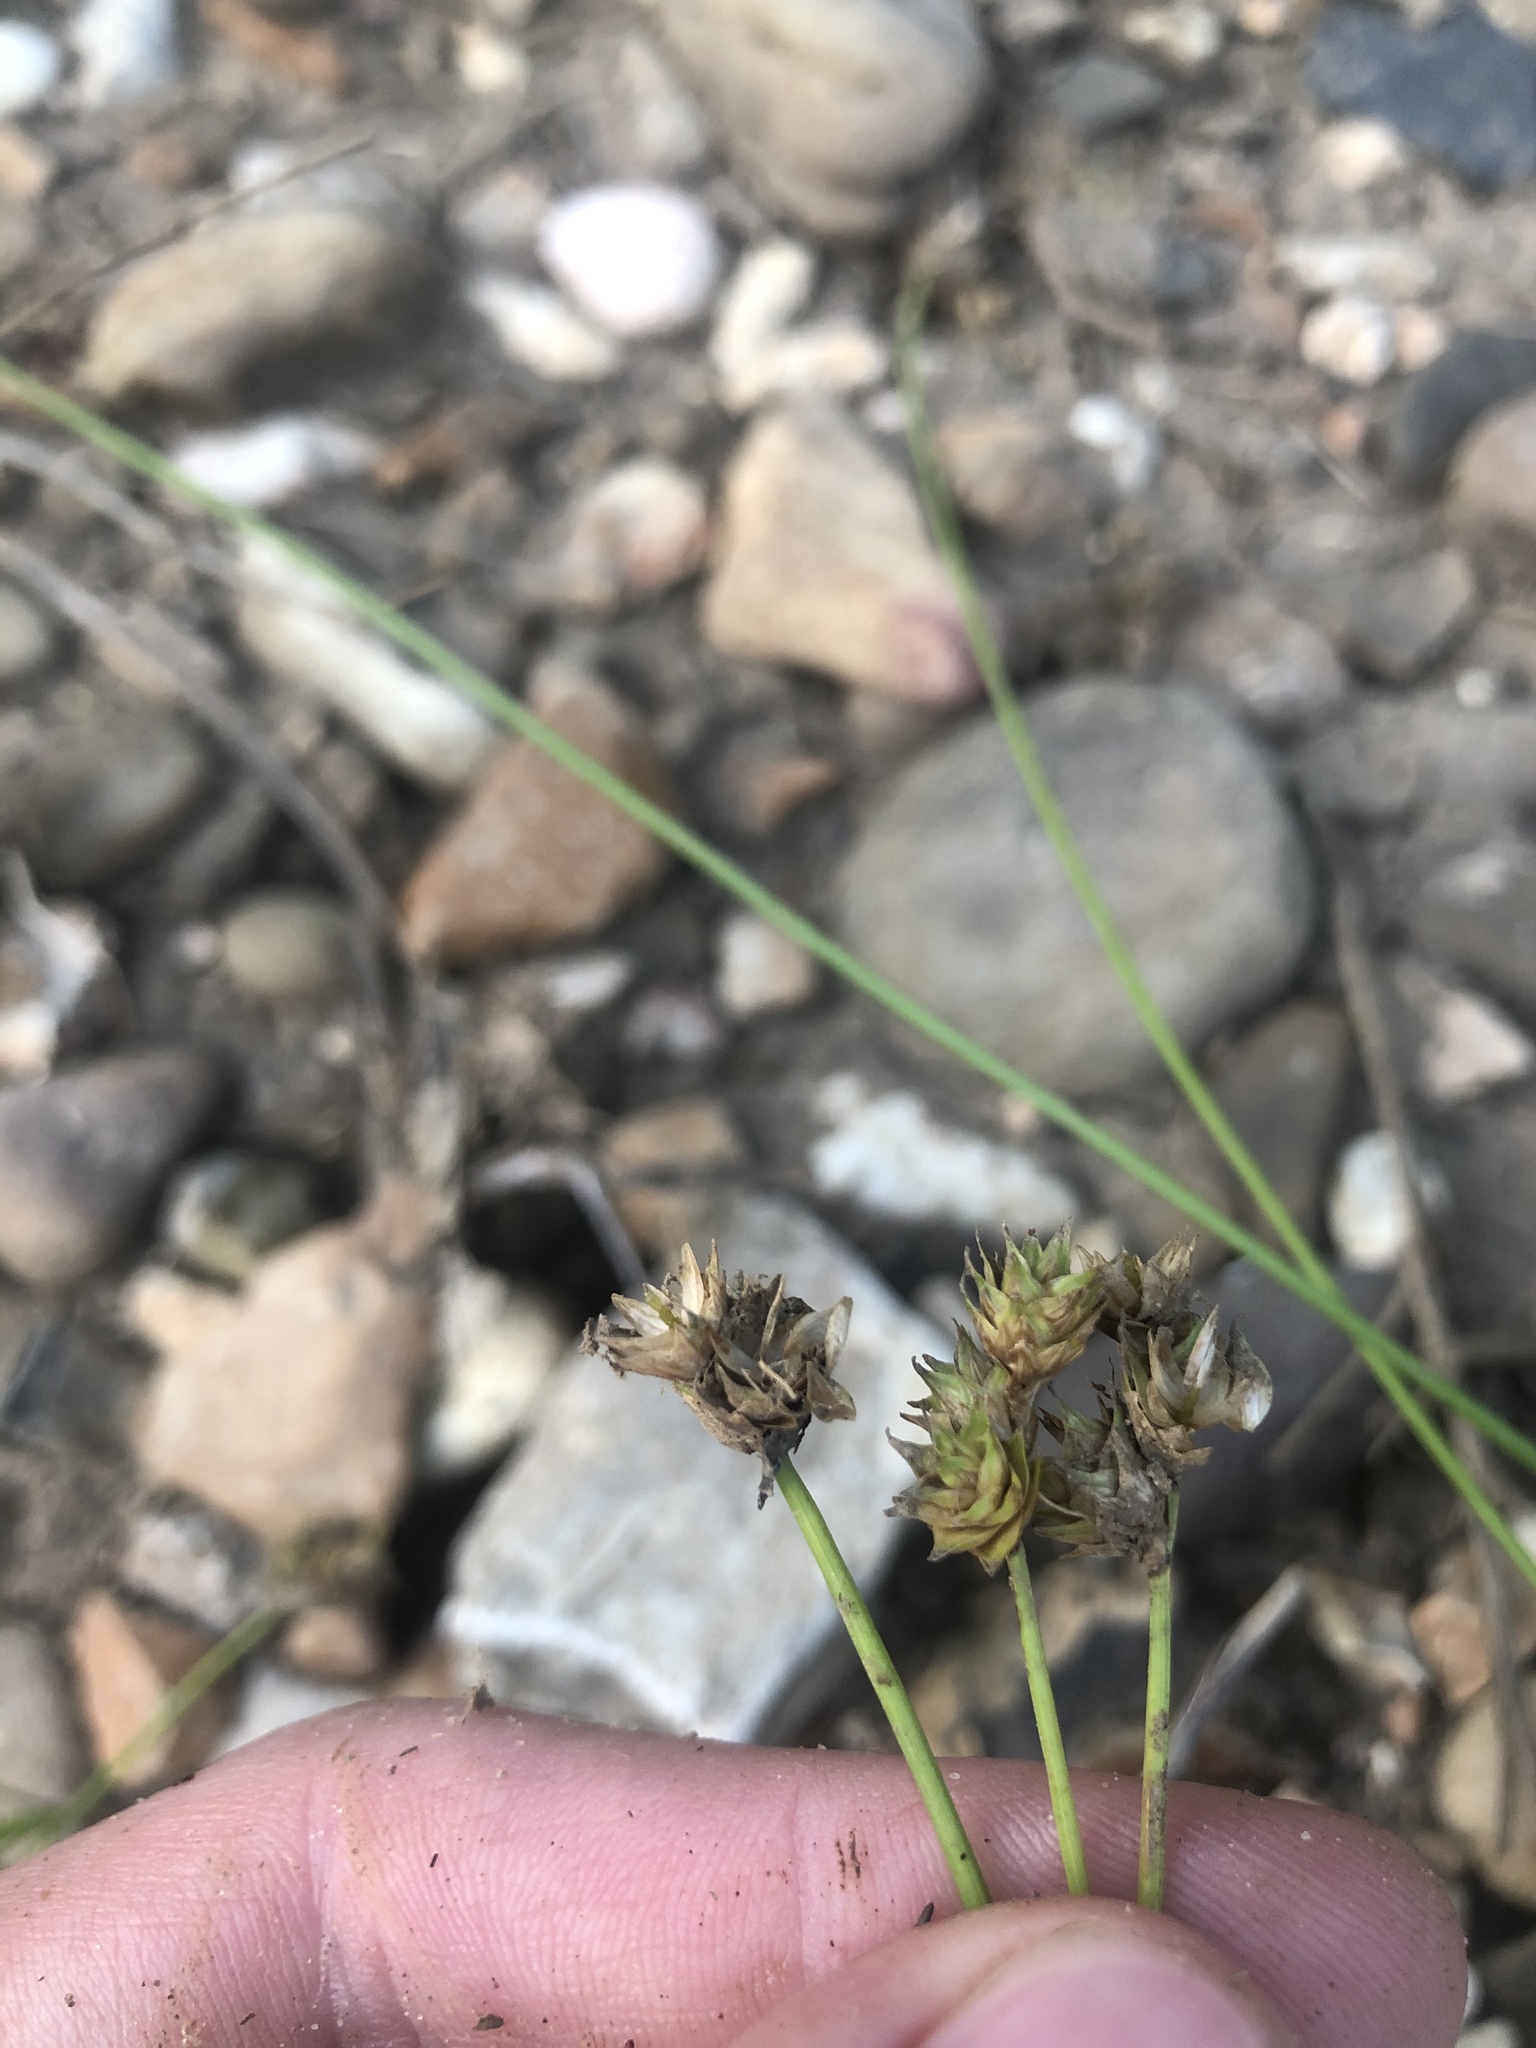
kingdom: Plantae
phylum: Tracheophyta
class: Liliopsida
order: Poales
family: Cyperaceae
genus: Carex
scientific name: Carex molestiformis
